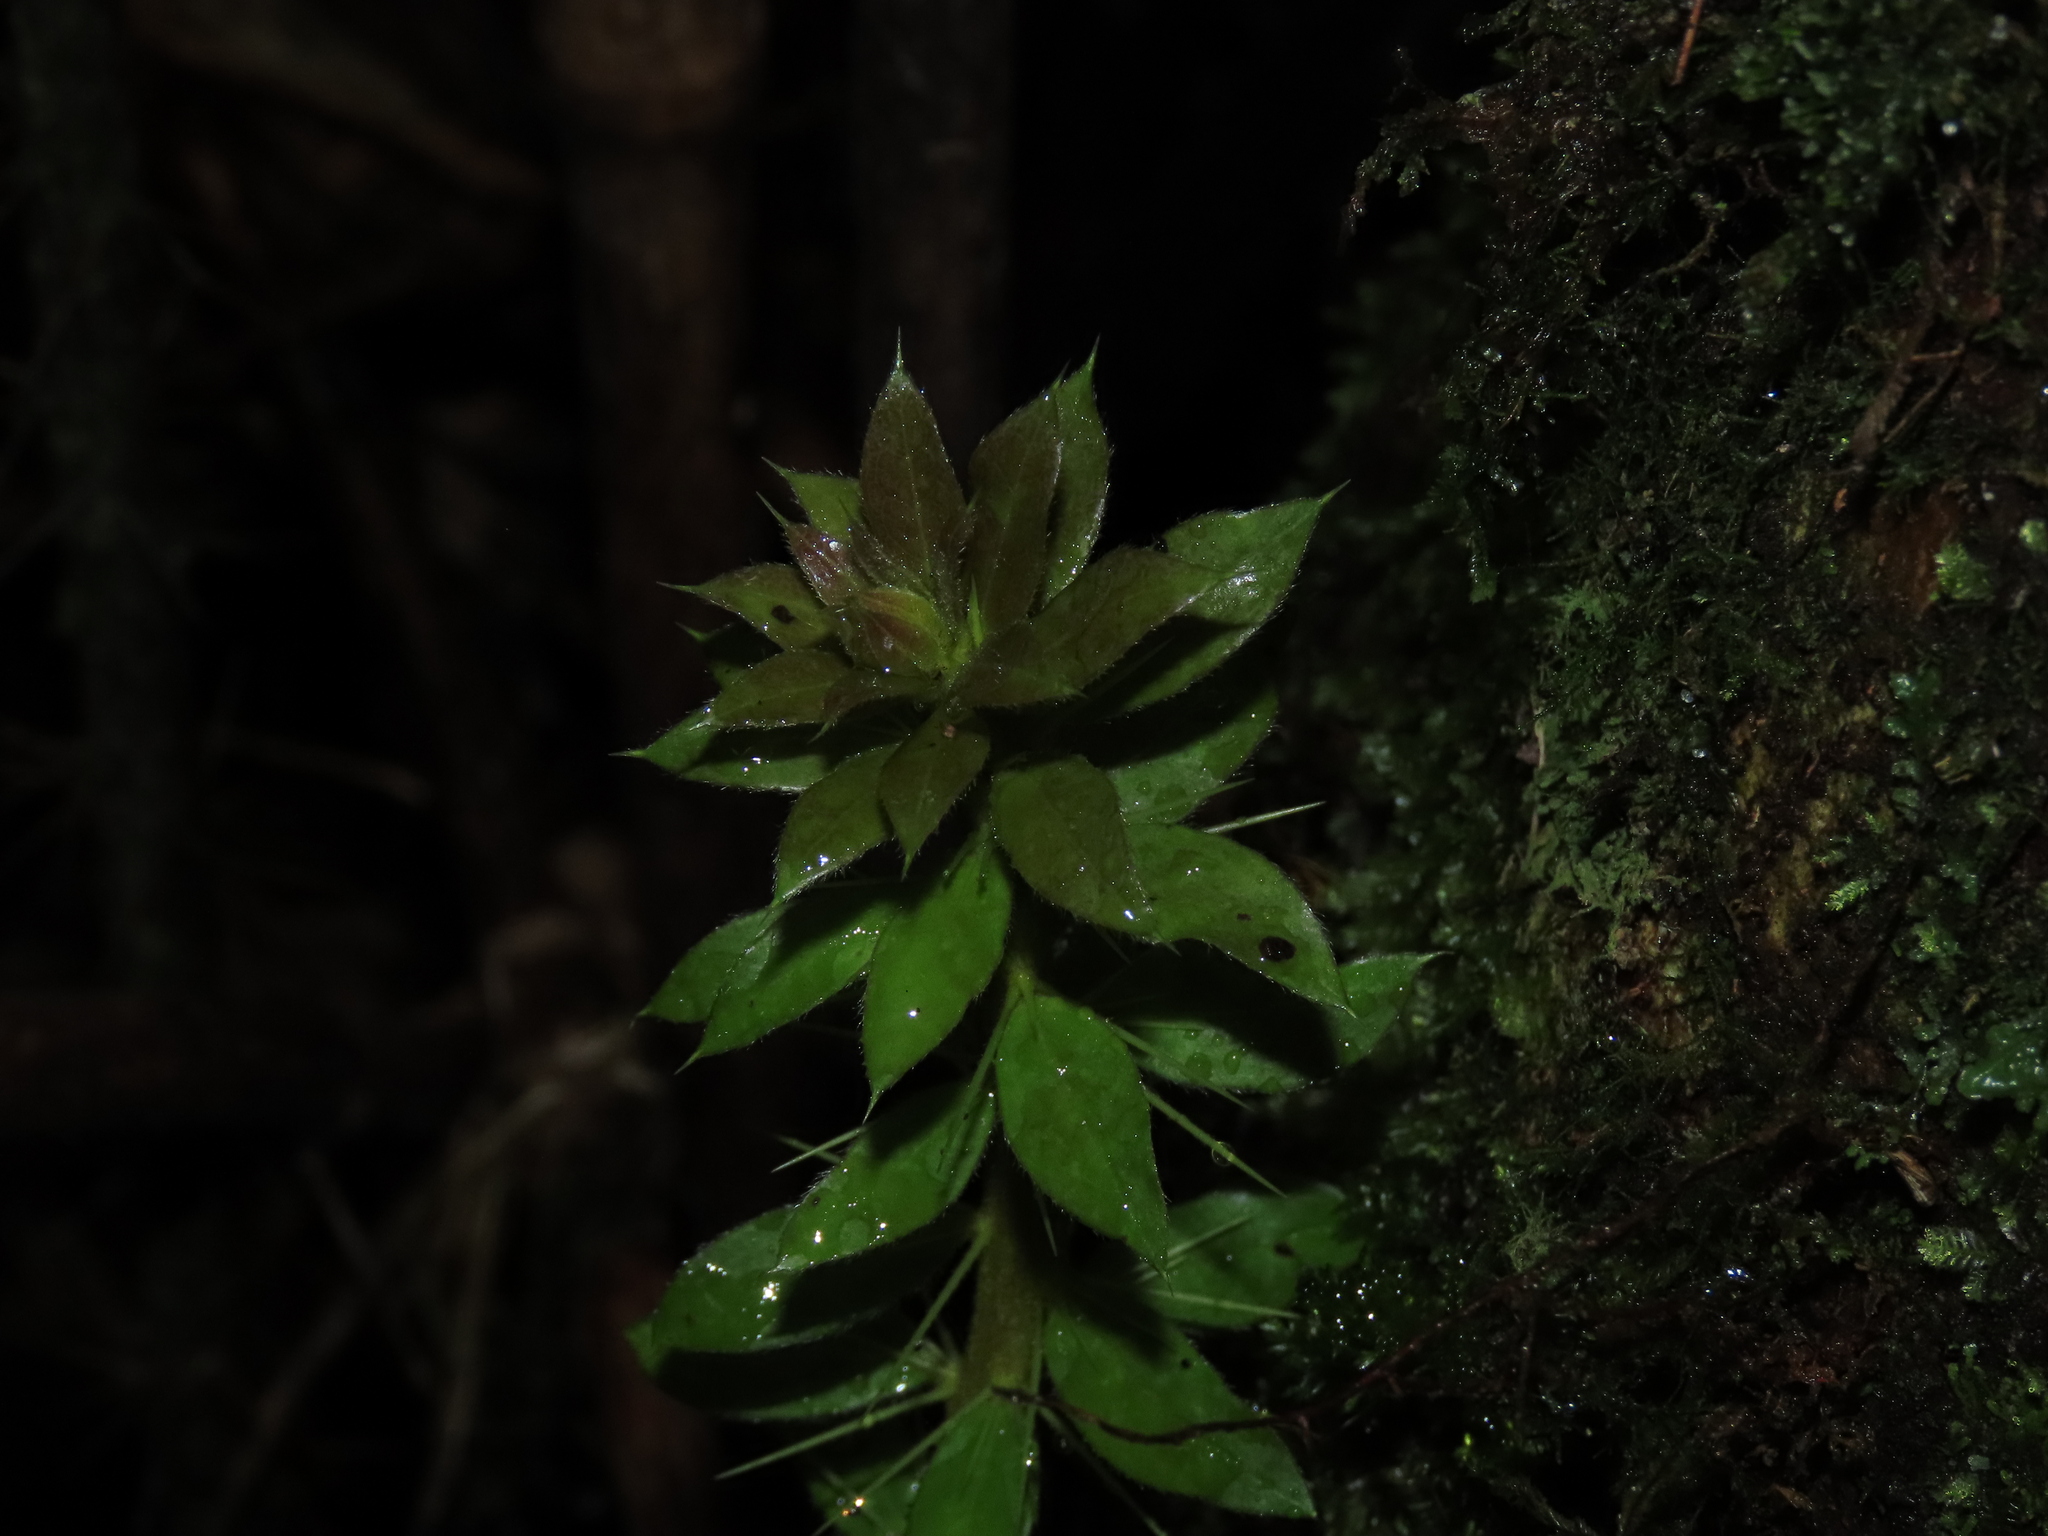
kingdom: Plantae
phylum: Tracheophyta
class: Magnoliopsida
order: Asterales
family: Asteraceae
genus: Archidasyphyllum
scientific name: Archidasyphyllum diacanthoides
